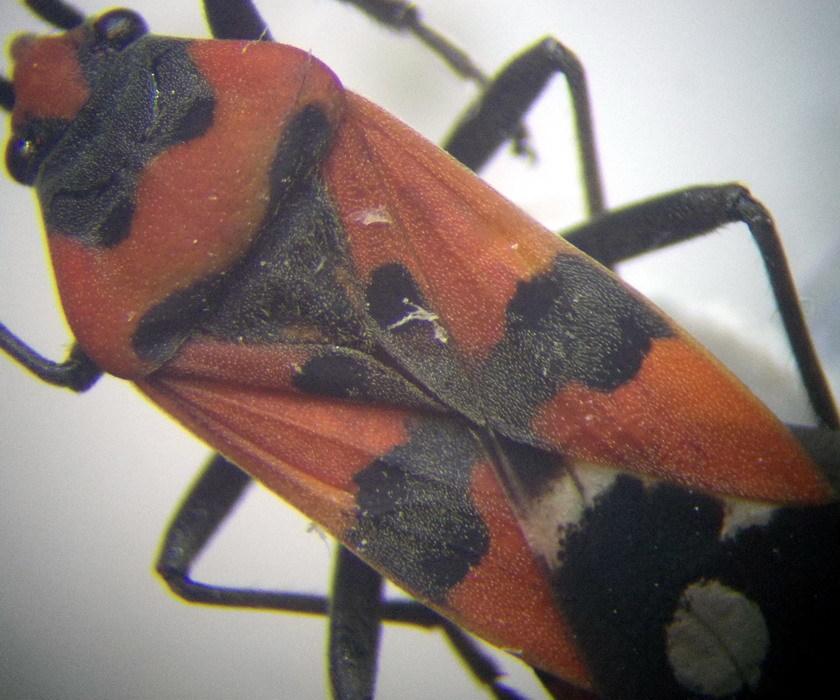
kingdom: Animalia
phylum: Arthropoda
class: Insecta
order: Hemiptera
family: Lygaeidae
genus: Lygaeus
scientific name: Lygaeus simulans
